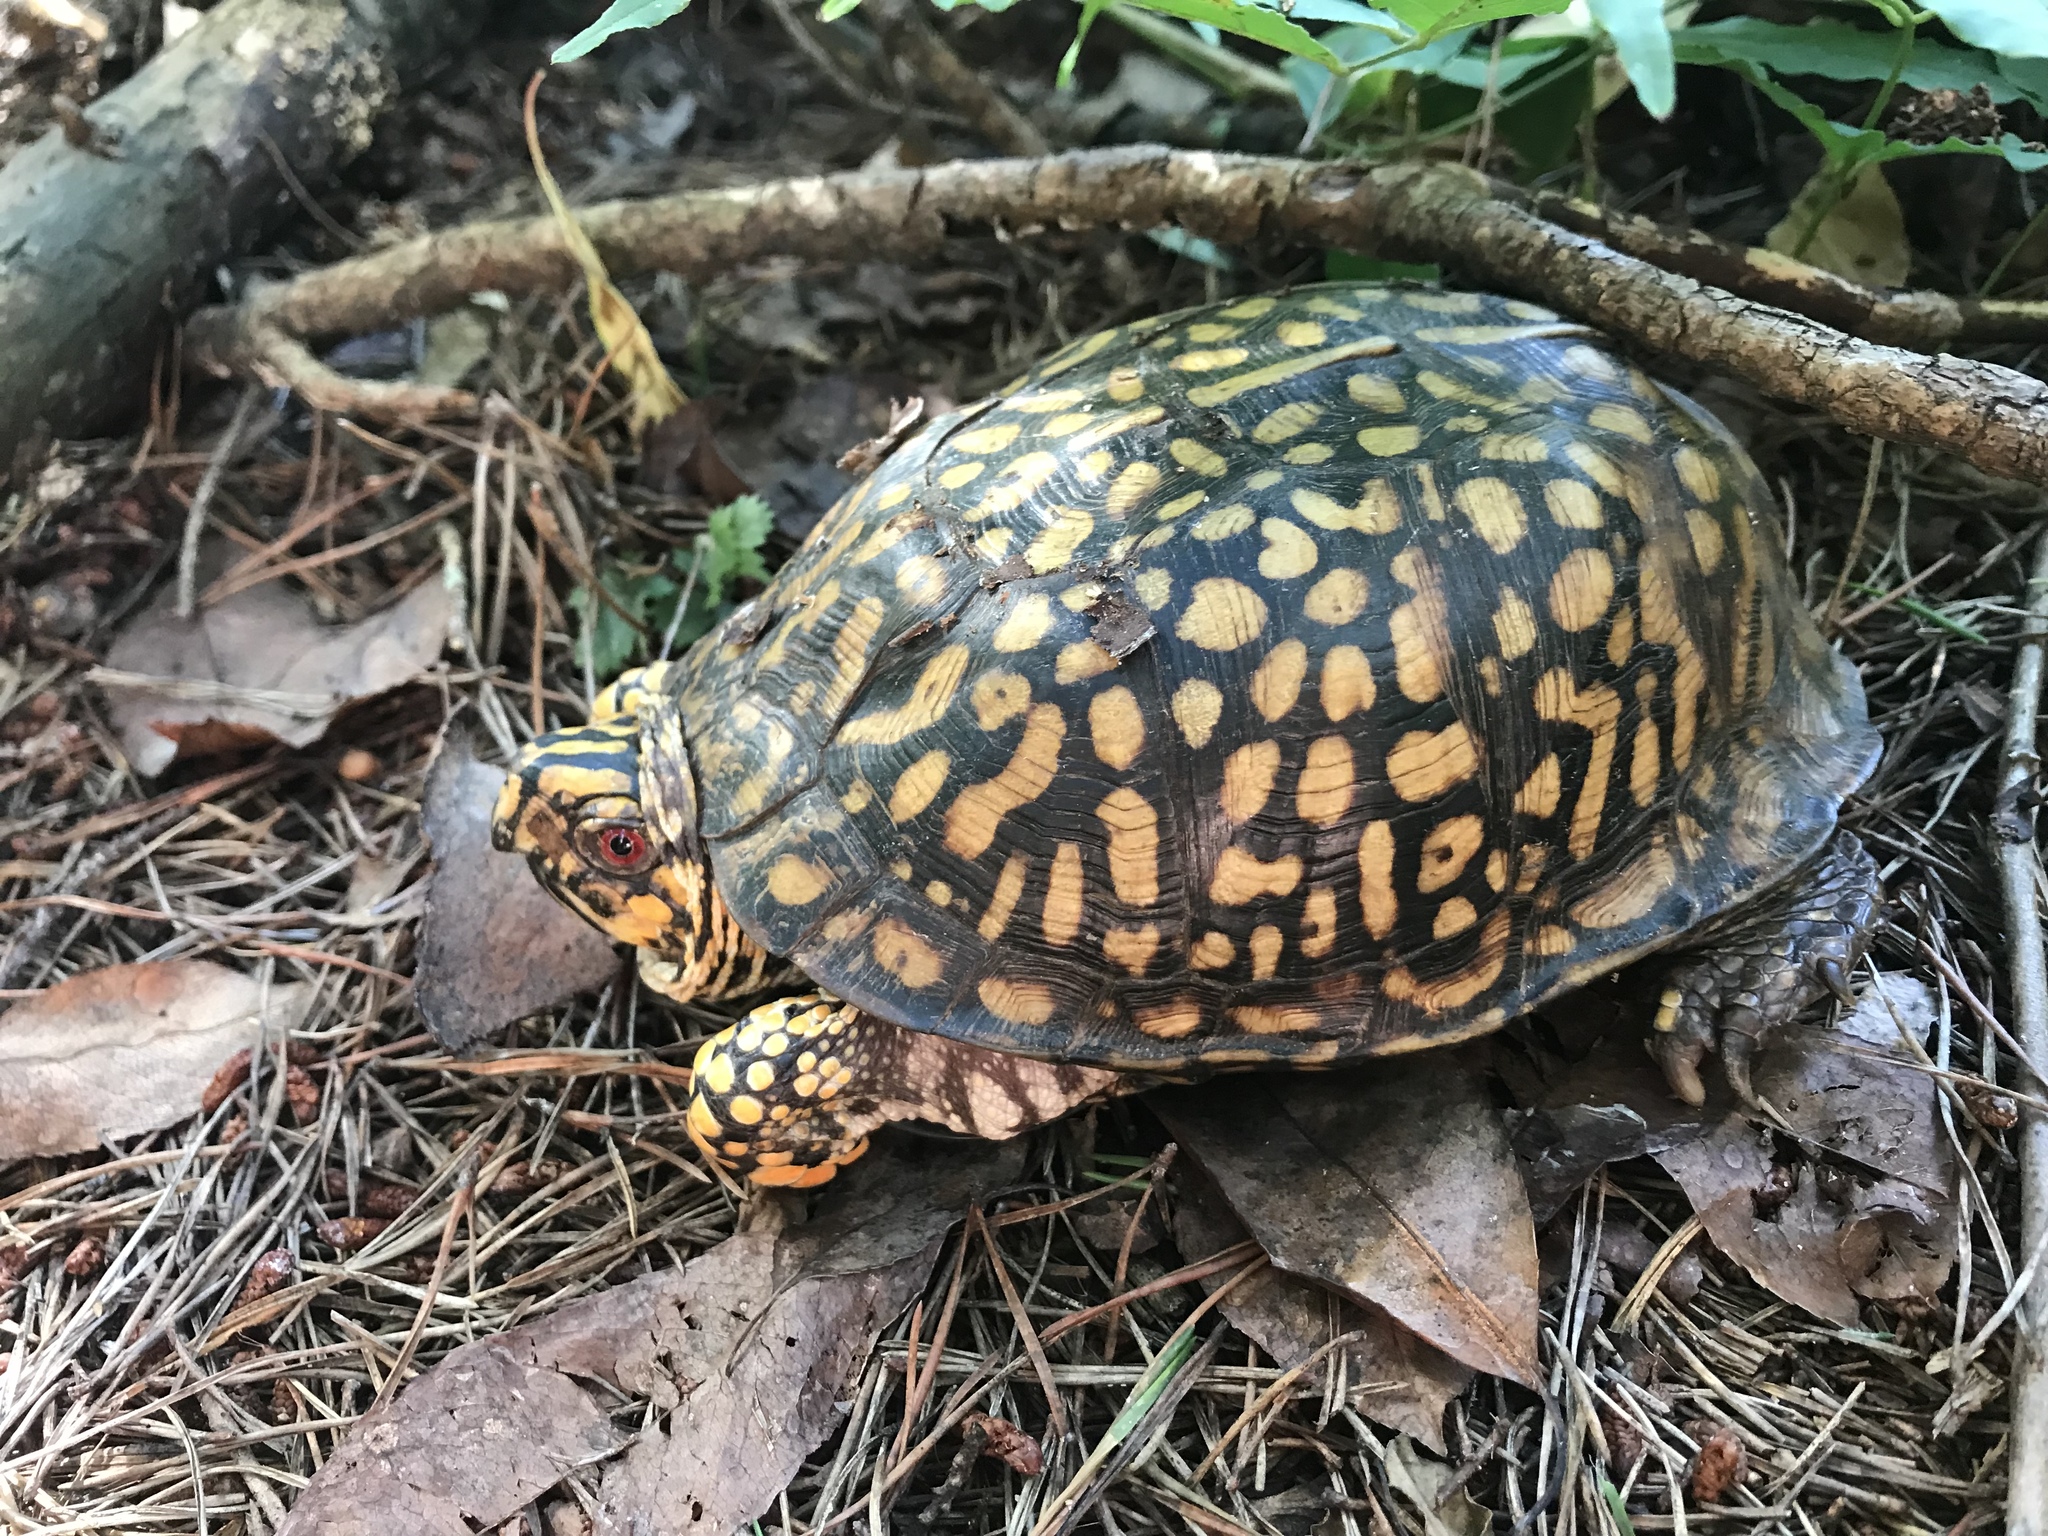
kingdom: Animalia
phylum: Chordata
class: Testudines
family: Emydidae
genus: Terrapene
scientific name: Terrapene carolina
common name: Common box turtle
